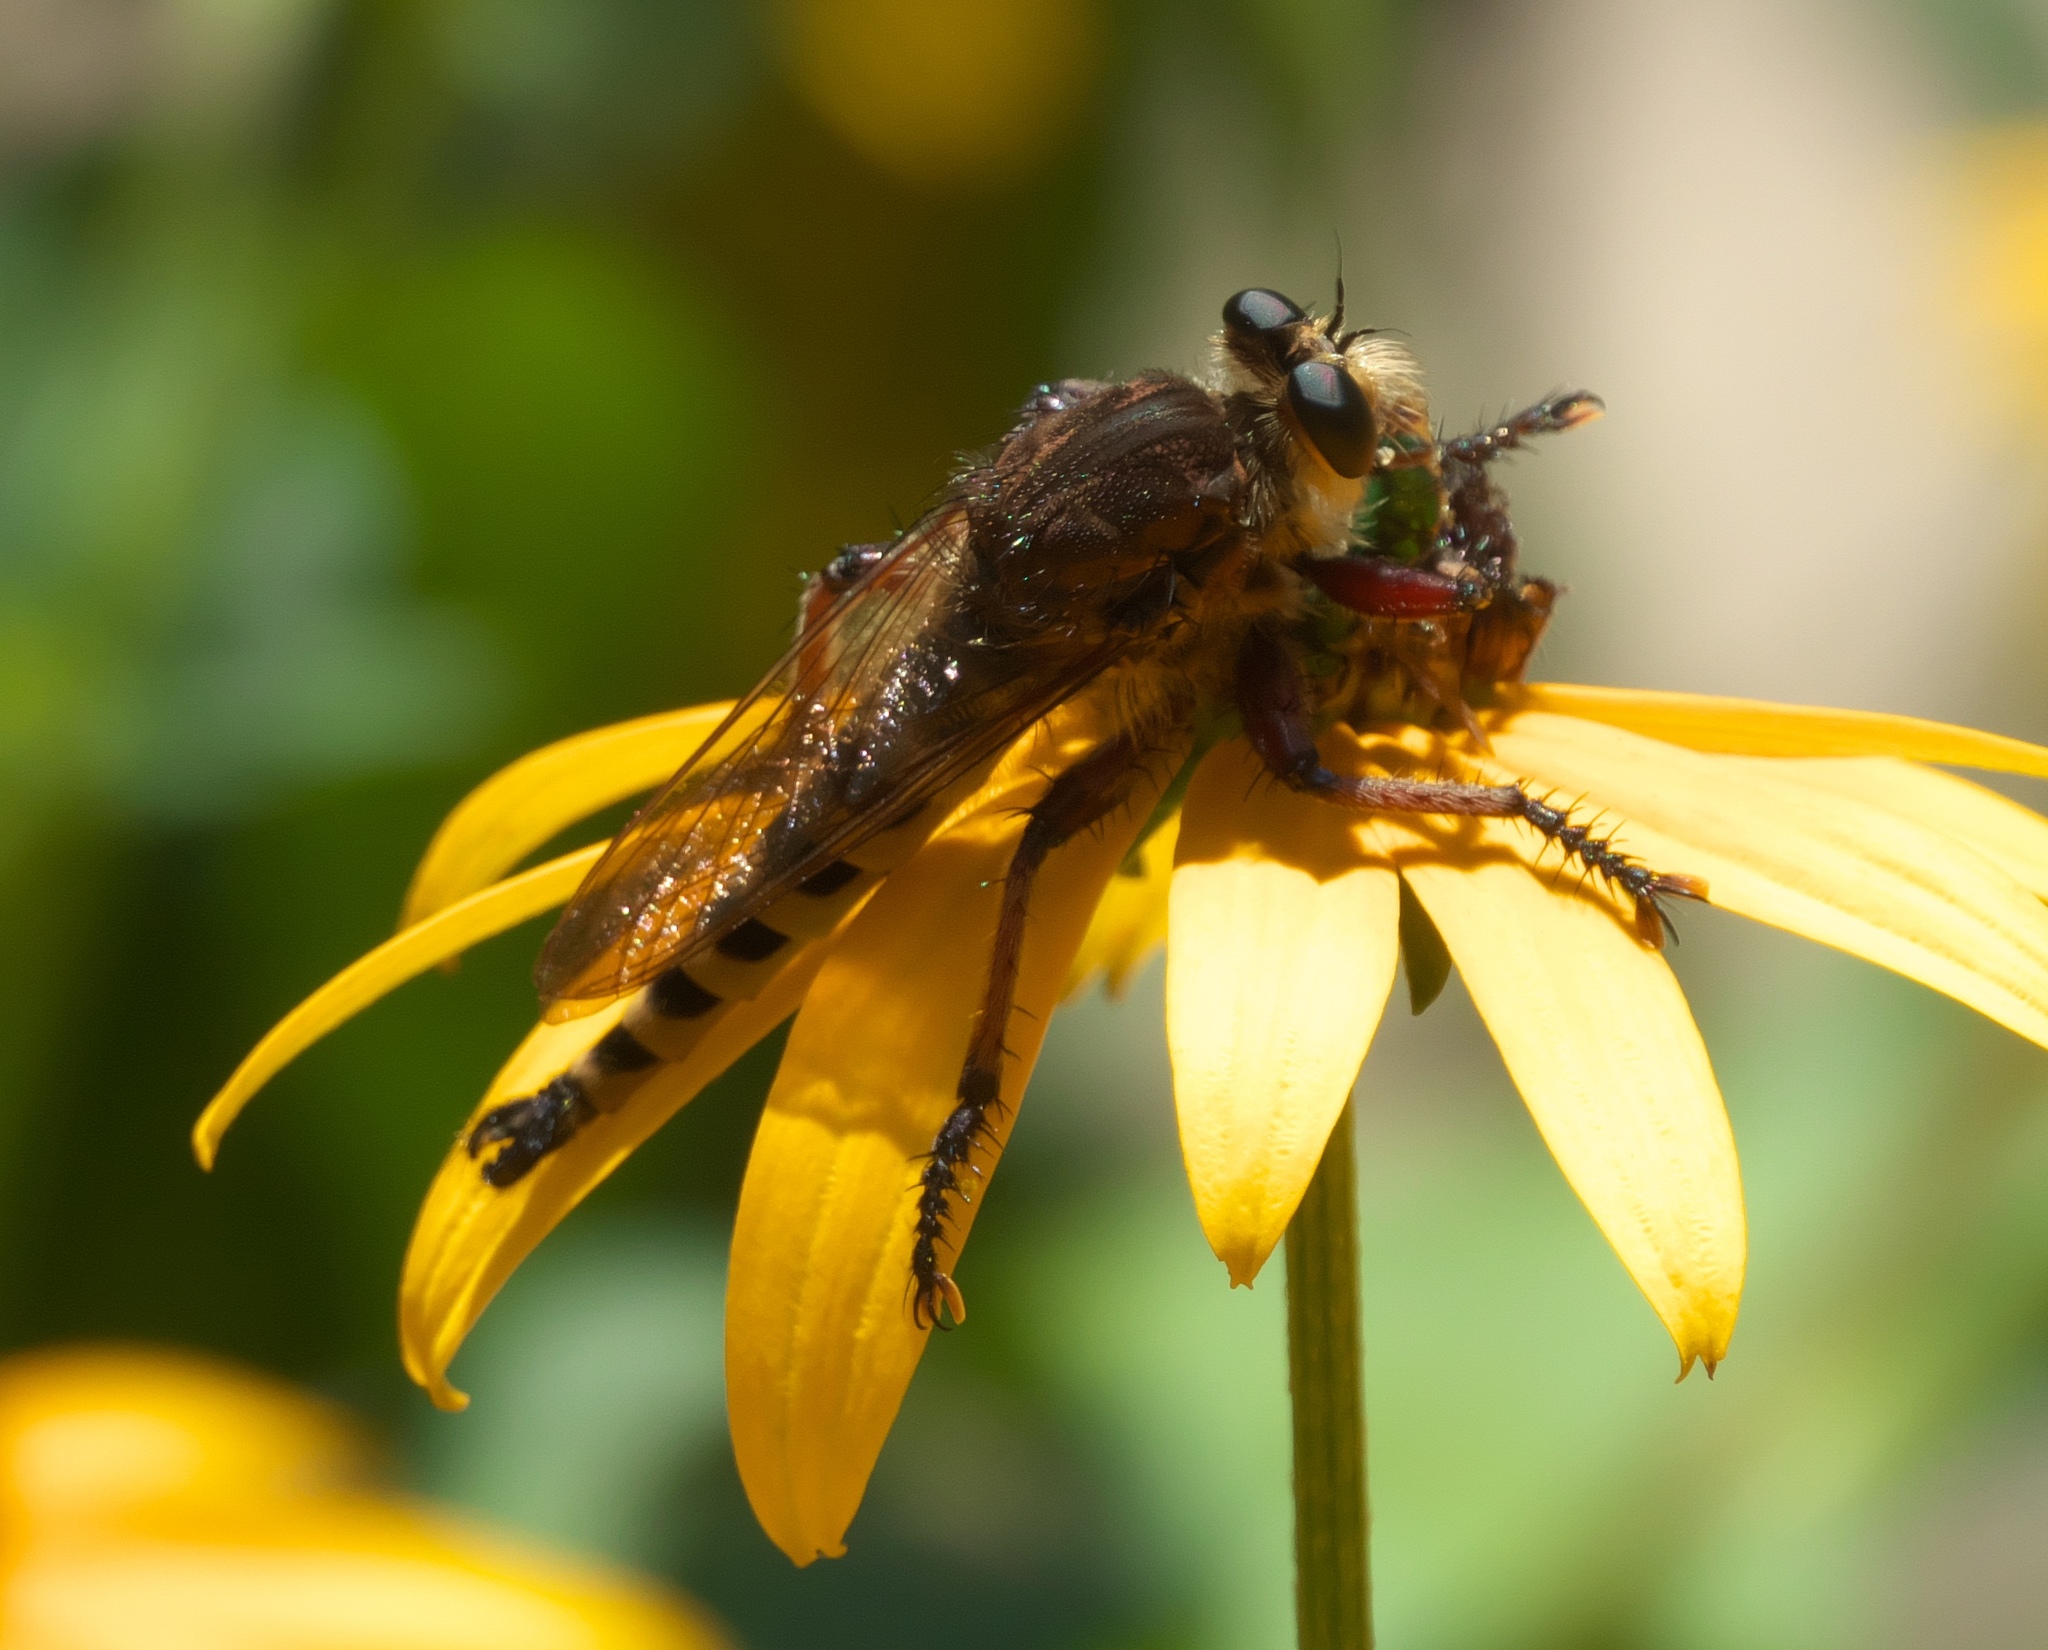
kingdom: Animalia
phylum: Arthropoda
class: Insecta
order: Diptera
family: Asilidae
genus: Promachus
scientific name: Promachus hinei
